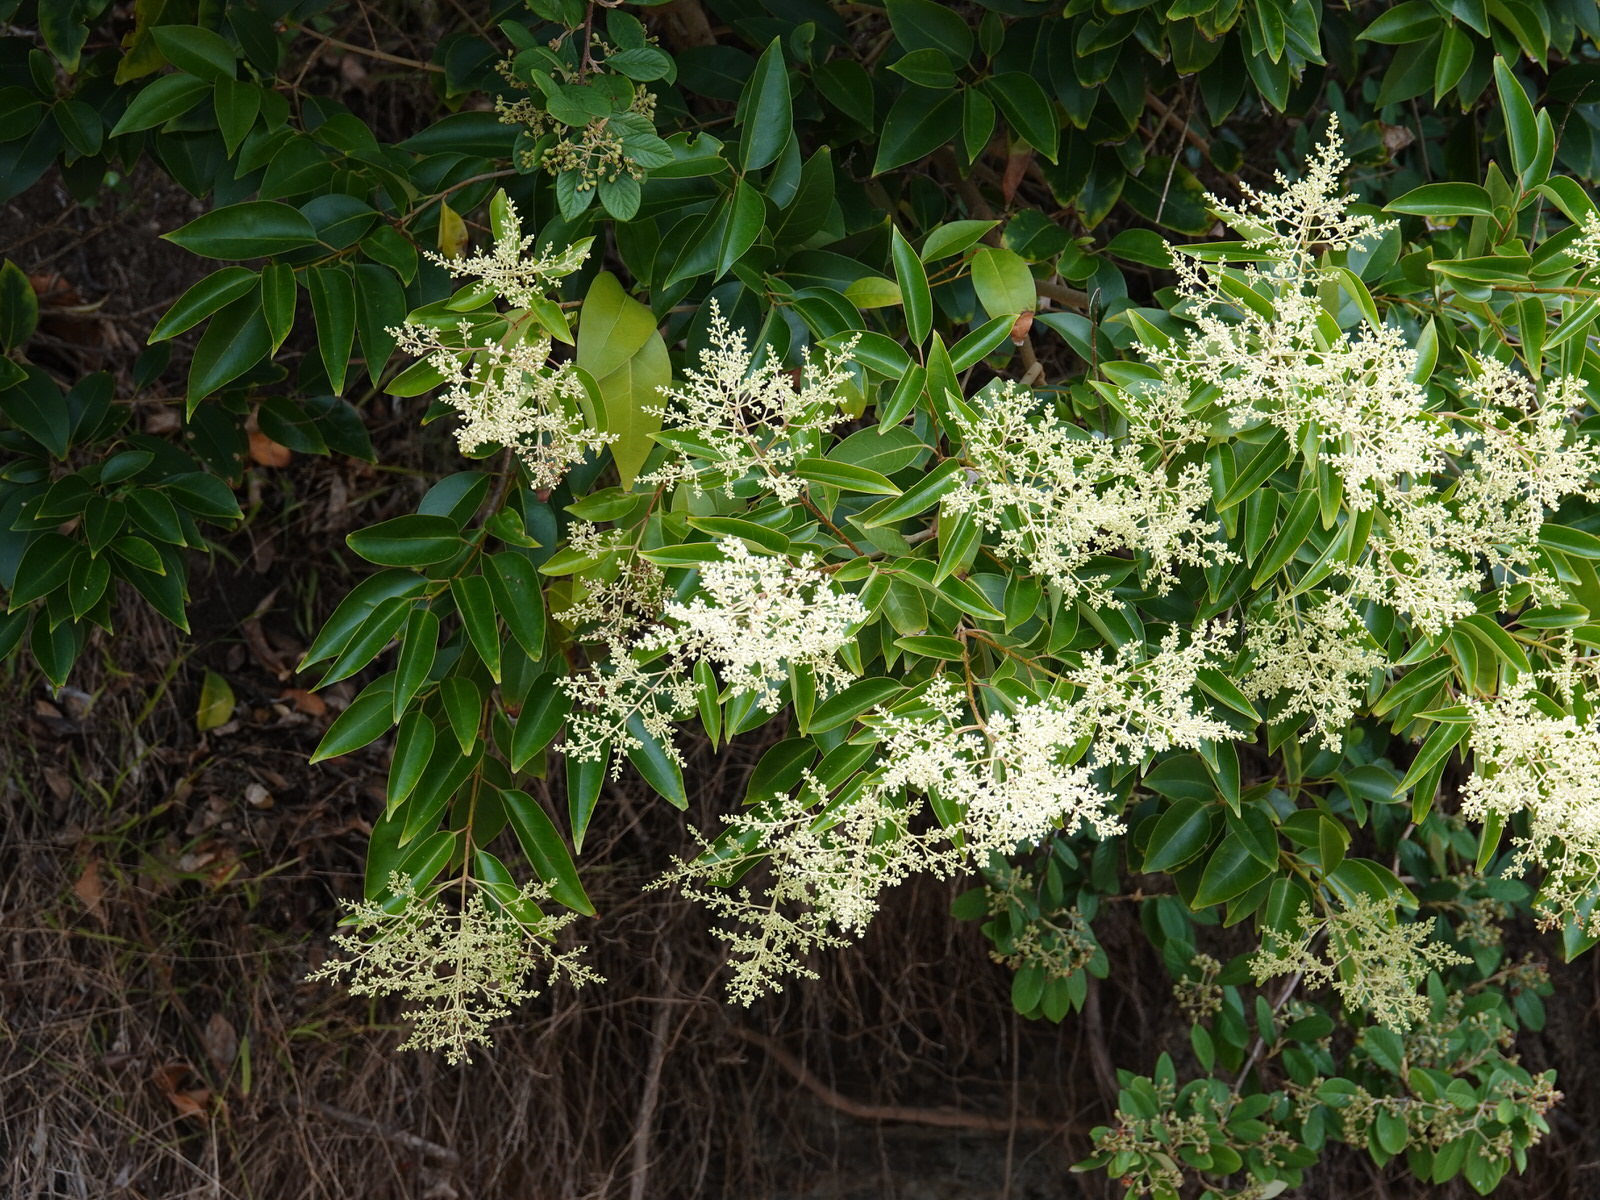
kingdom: Plantae
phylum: Tracheophyta
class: Magnoliopsida
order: Lamiales
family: Oleaceae
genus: Ligustrum
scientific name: Ligustrum lucidum
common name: Glossy privet
